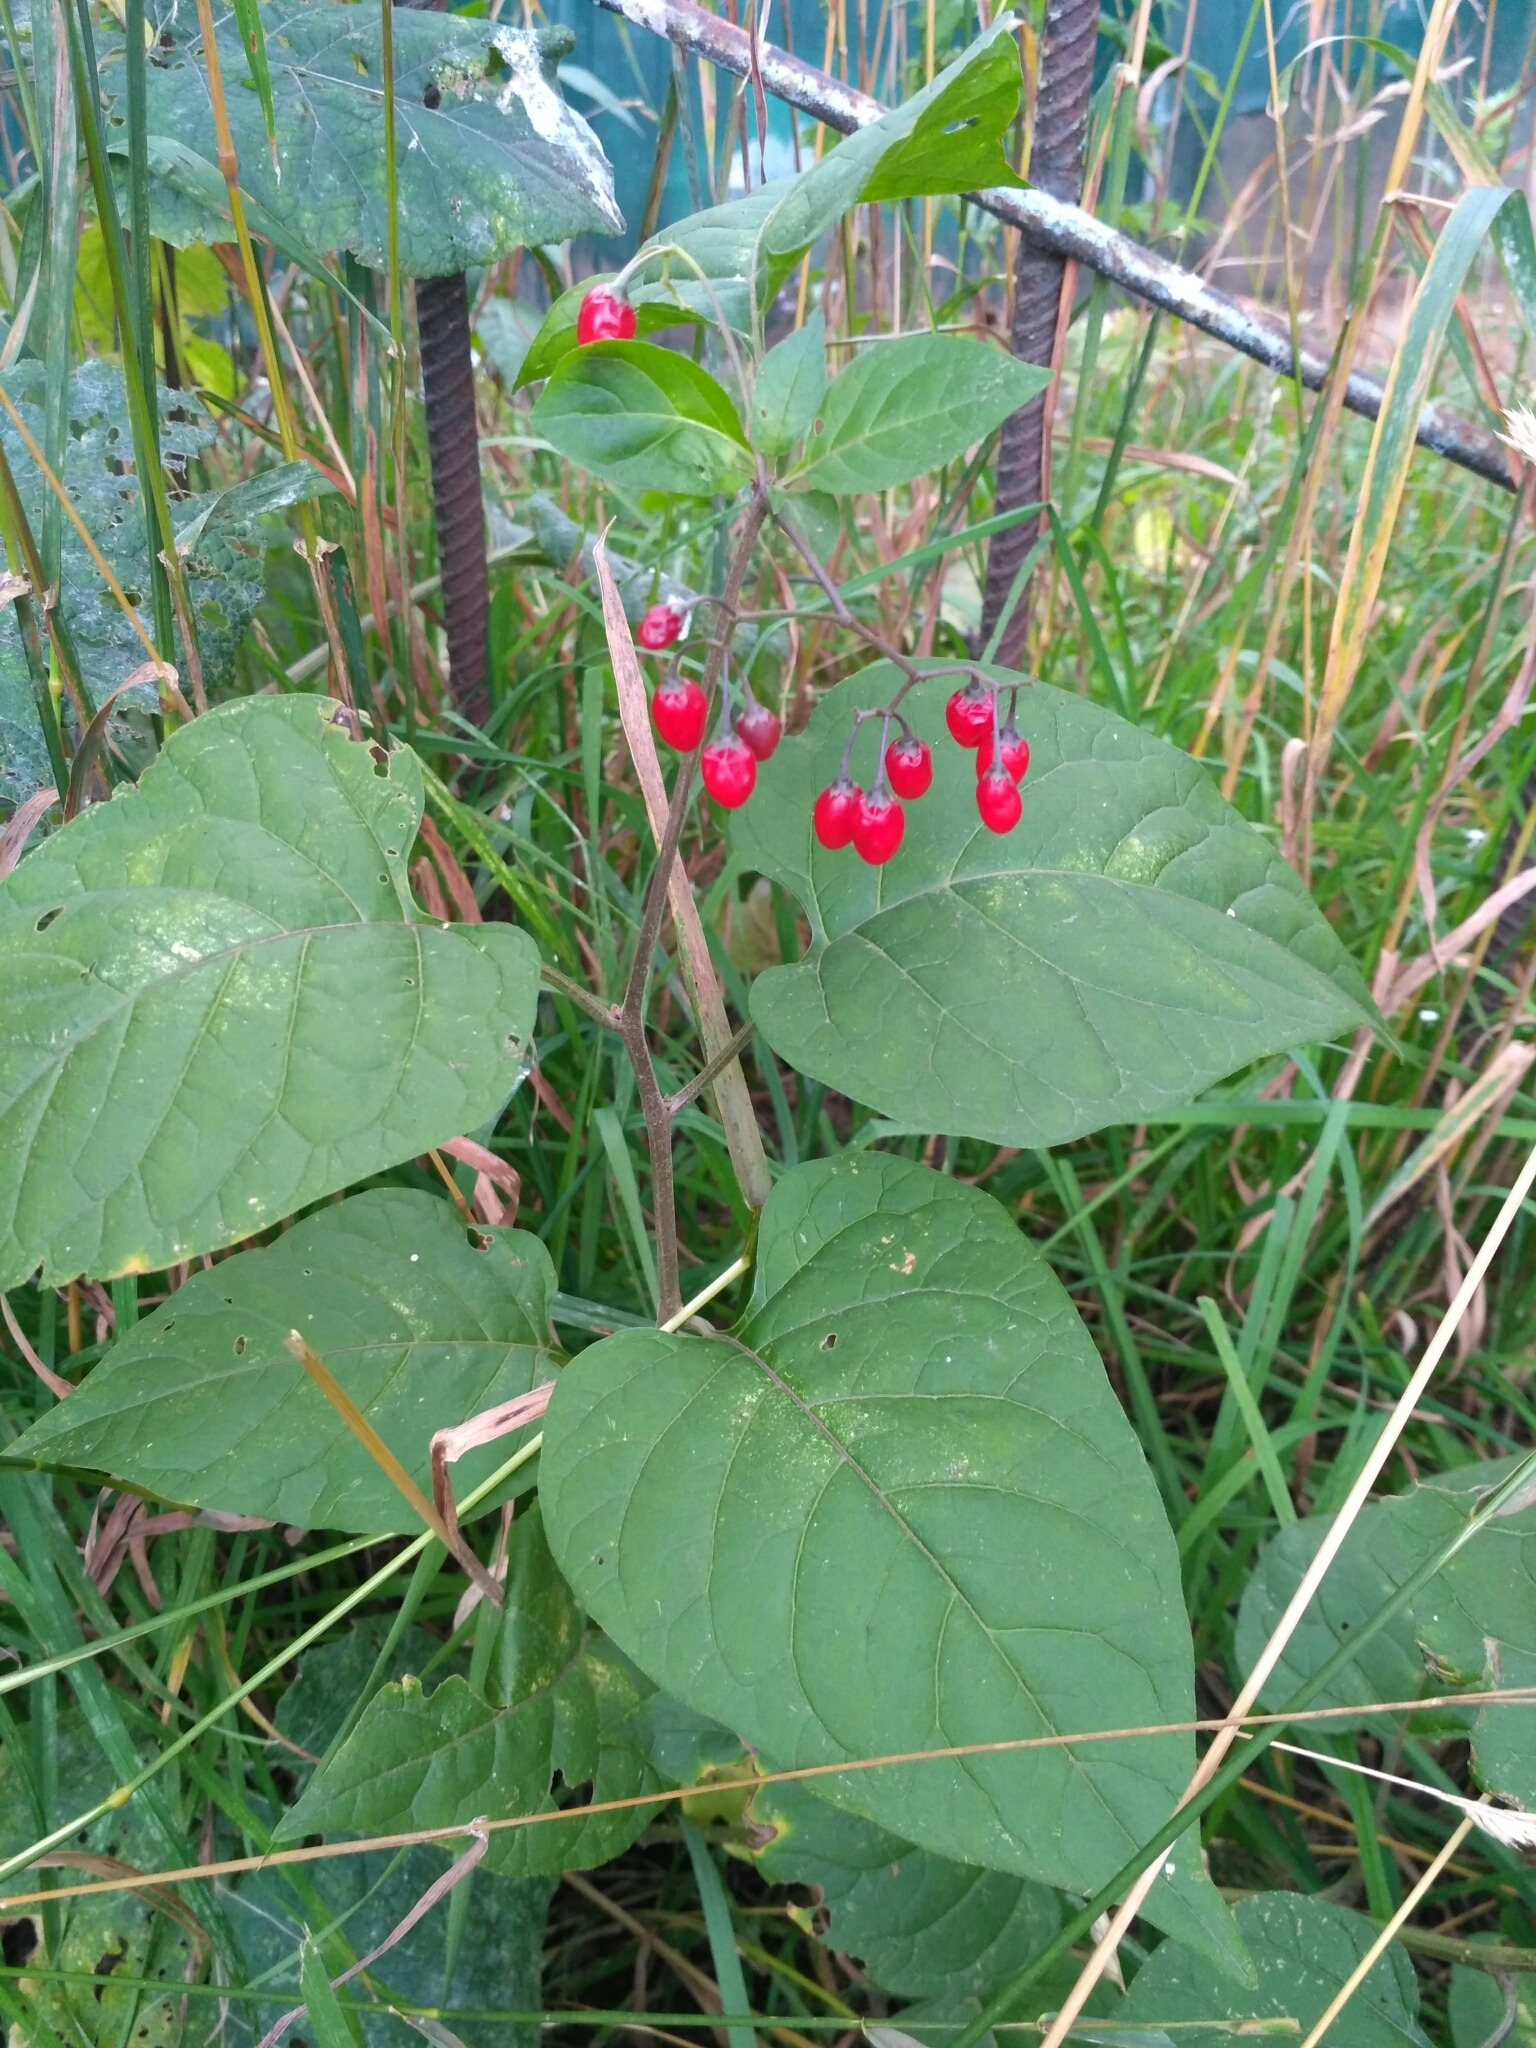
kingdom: Plantae
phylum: Tracheophyta
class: Magnoliopsida
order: Solanales
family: Solanaceae
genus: Solanum
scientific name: Solanum dulcamara
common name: Climbing nightshade
